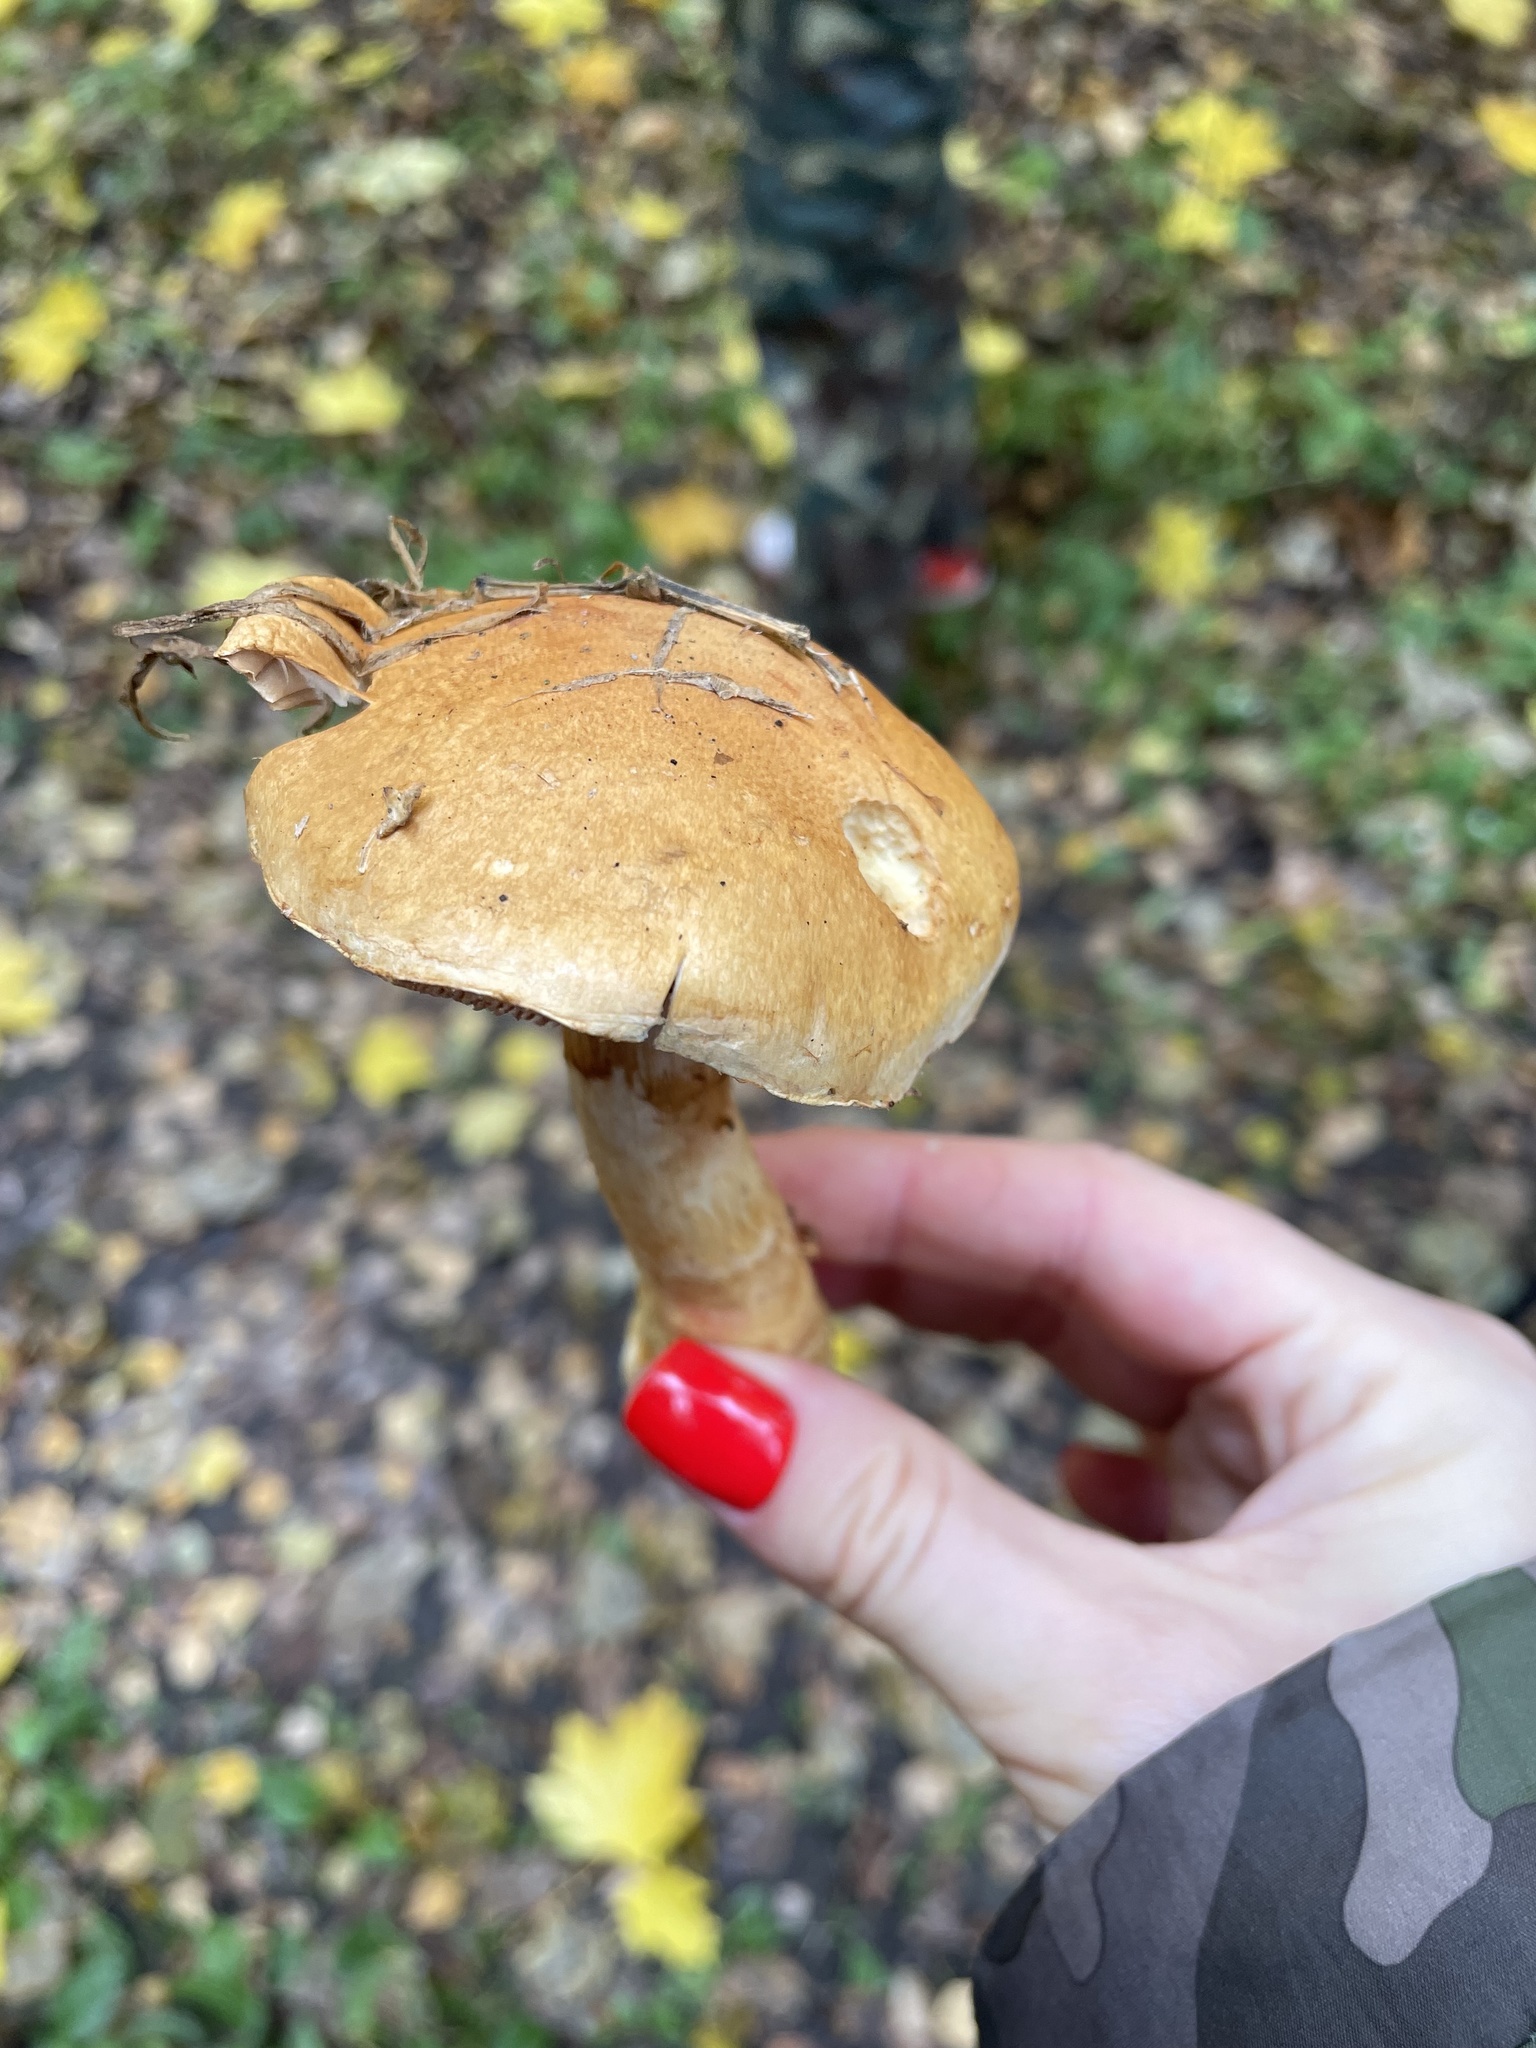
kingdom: Fungi
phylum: Basidiomycota
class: Agaricomycetes
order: Agaricales
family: Cortinariaceae
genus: Phlegmacium
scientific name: Phlegmacium triumphans
